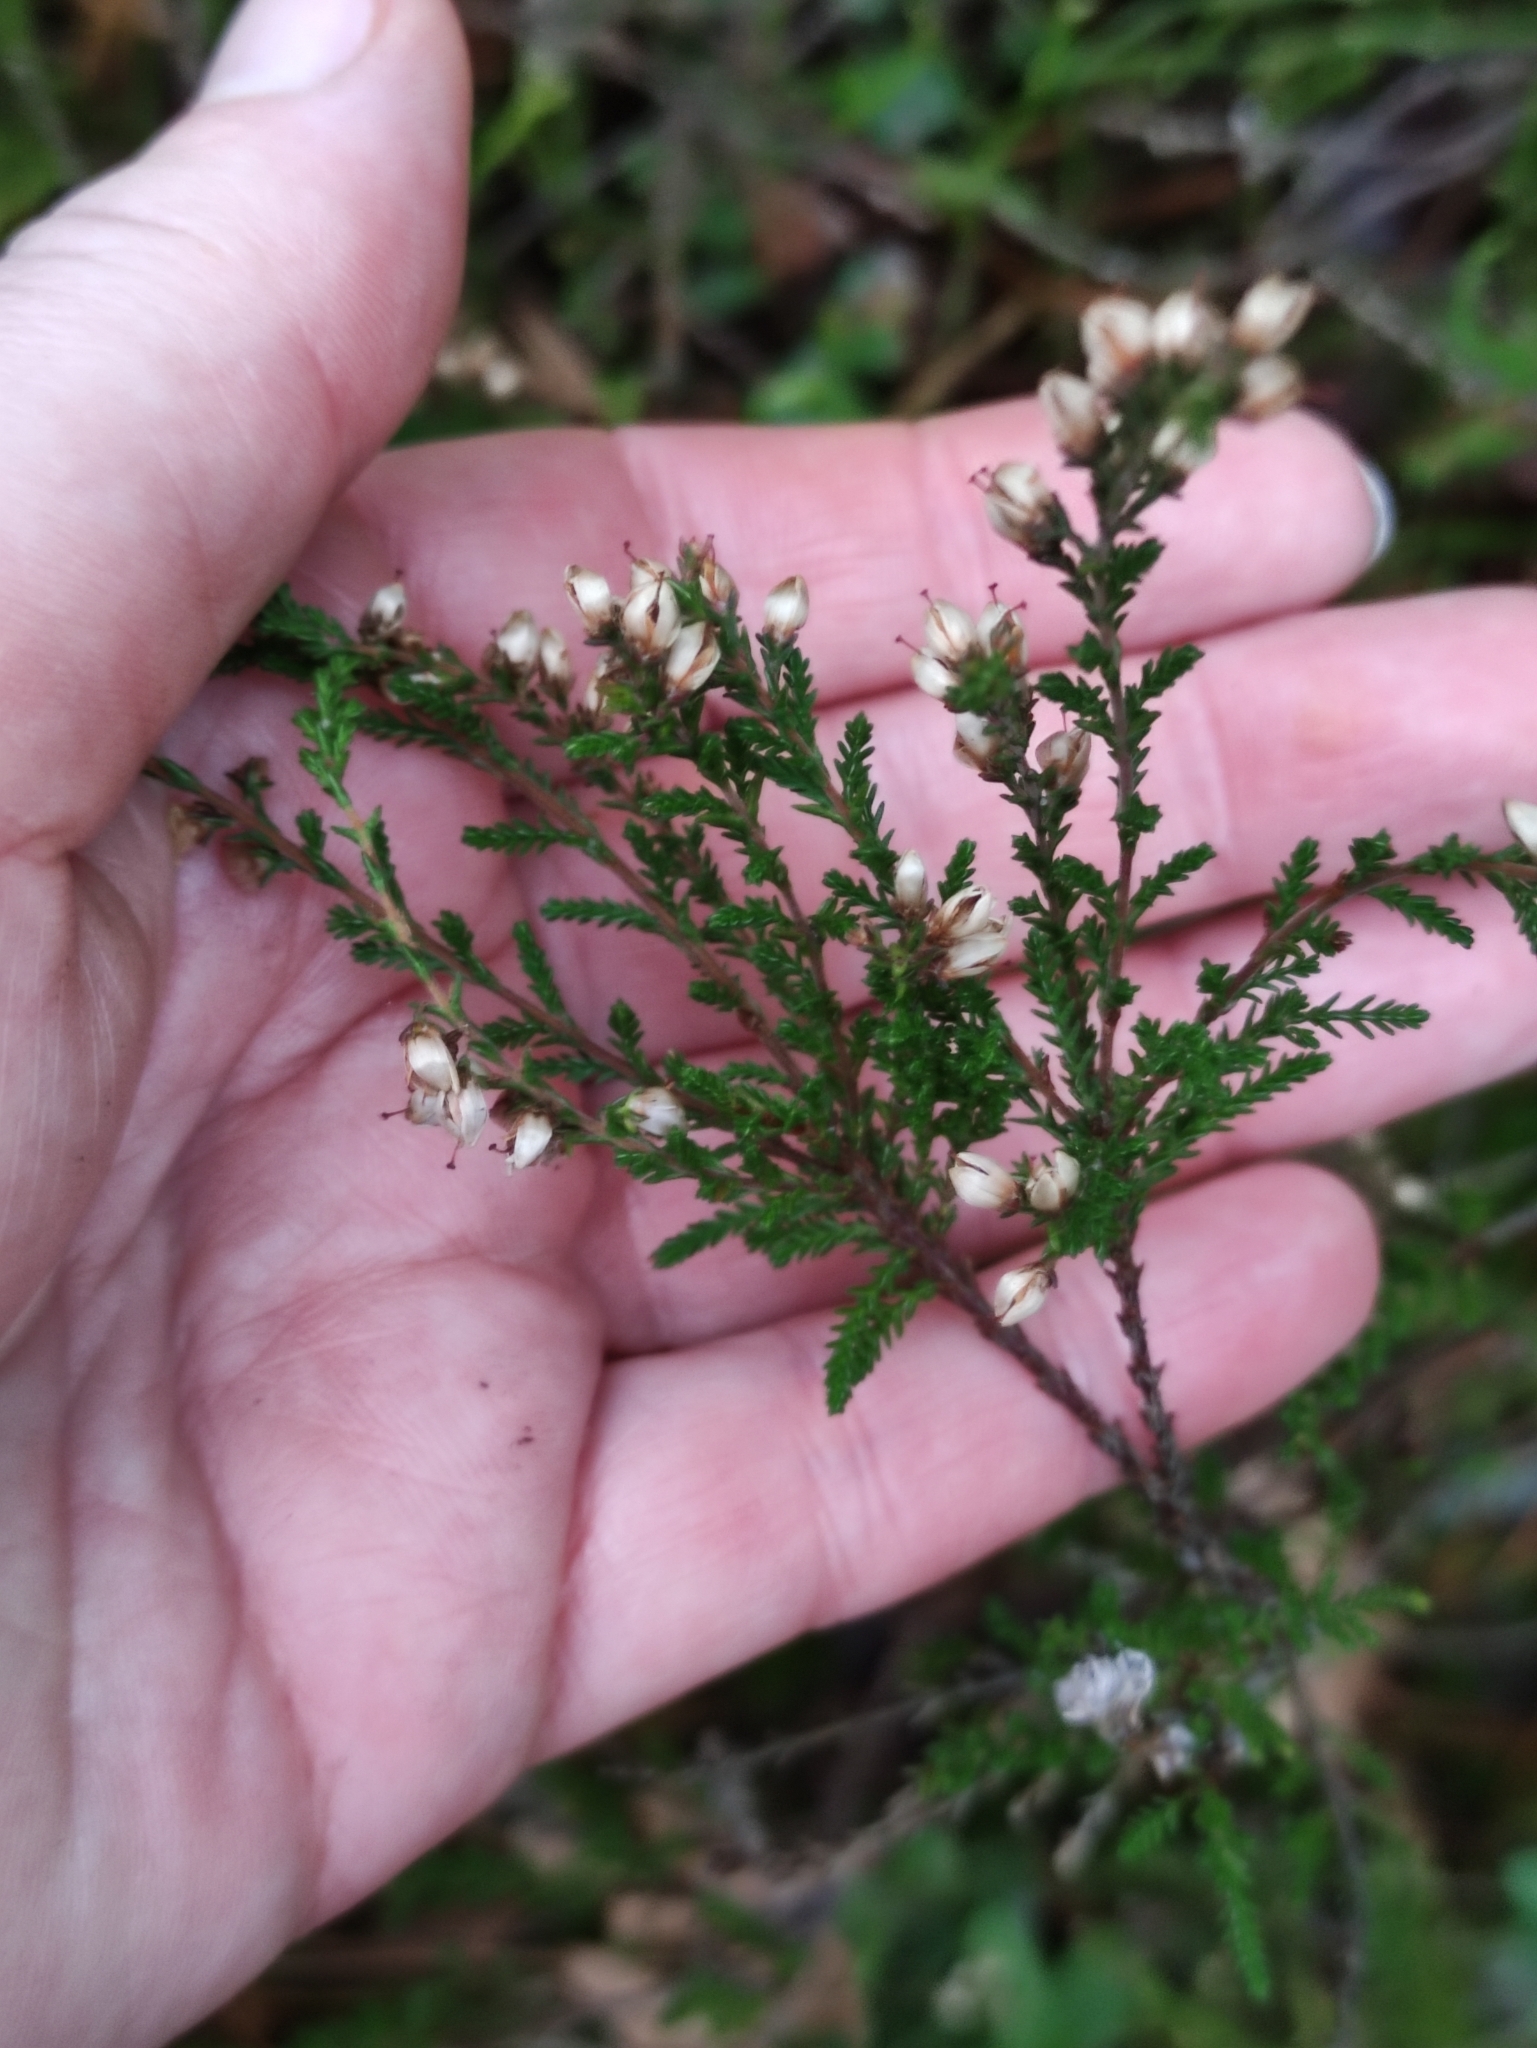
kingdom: Plantae
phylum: Tracheophyta
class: Magnoliopsida
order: Ericales
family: Ericaceae
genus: Calluna
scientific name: Calluna vulgaris
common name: Heather
